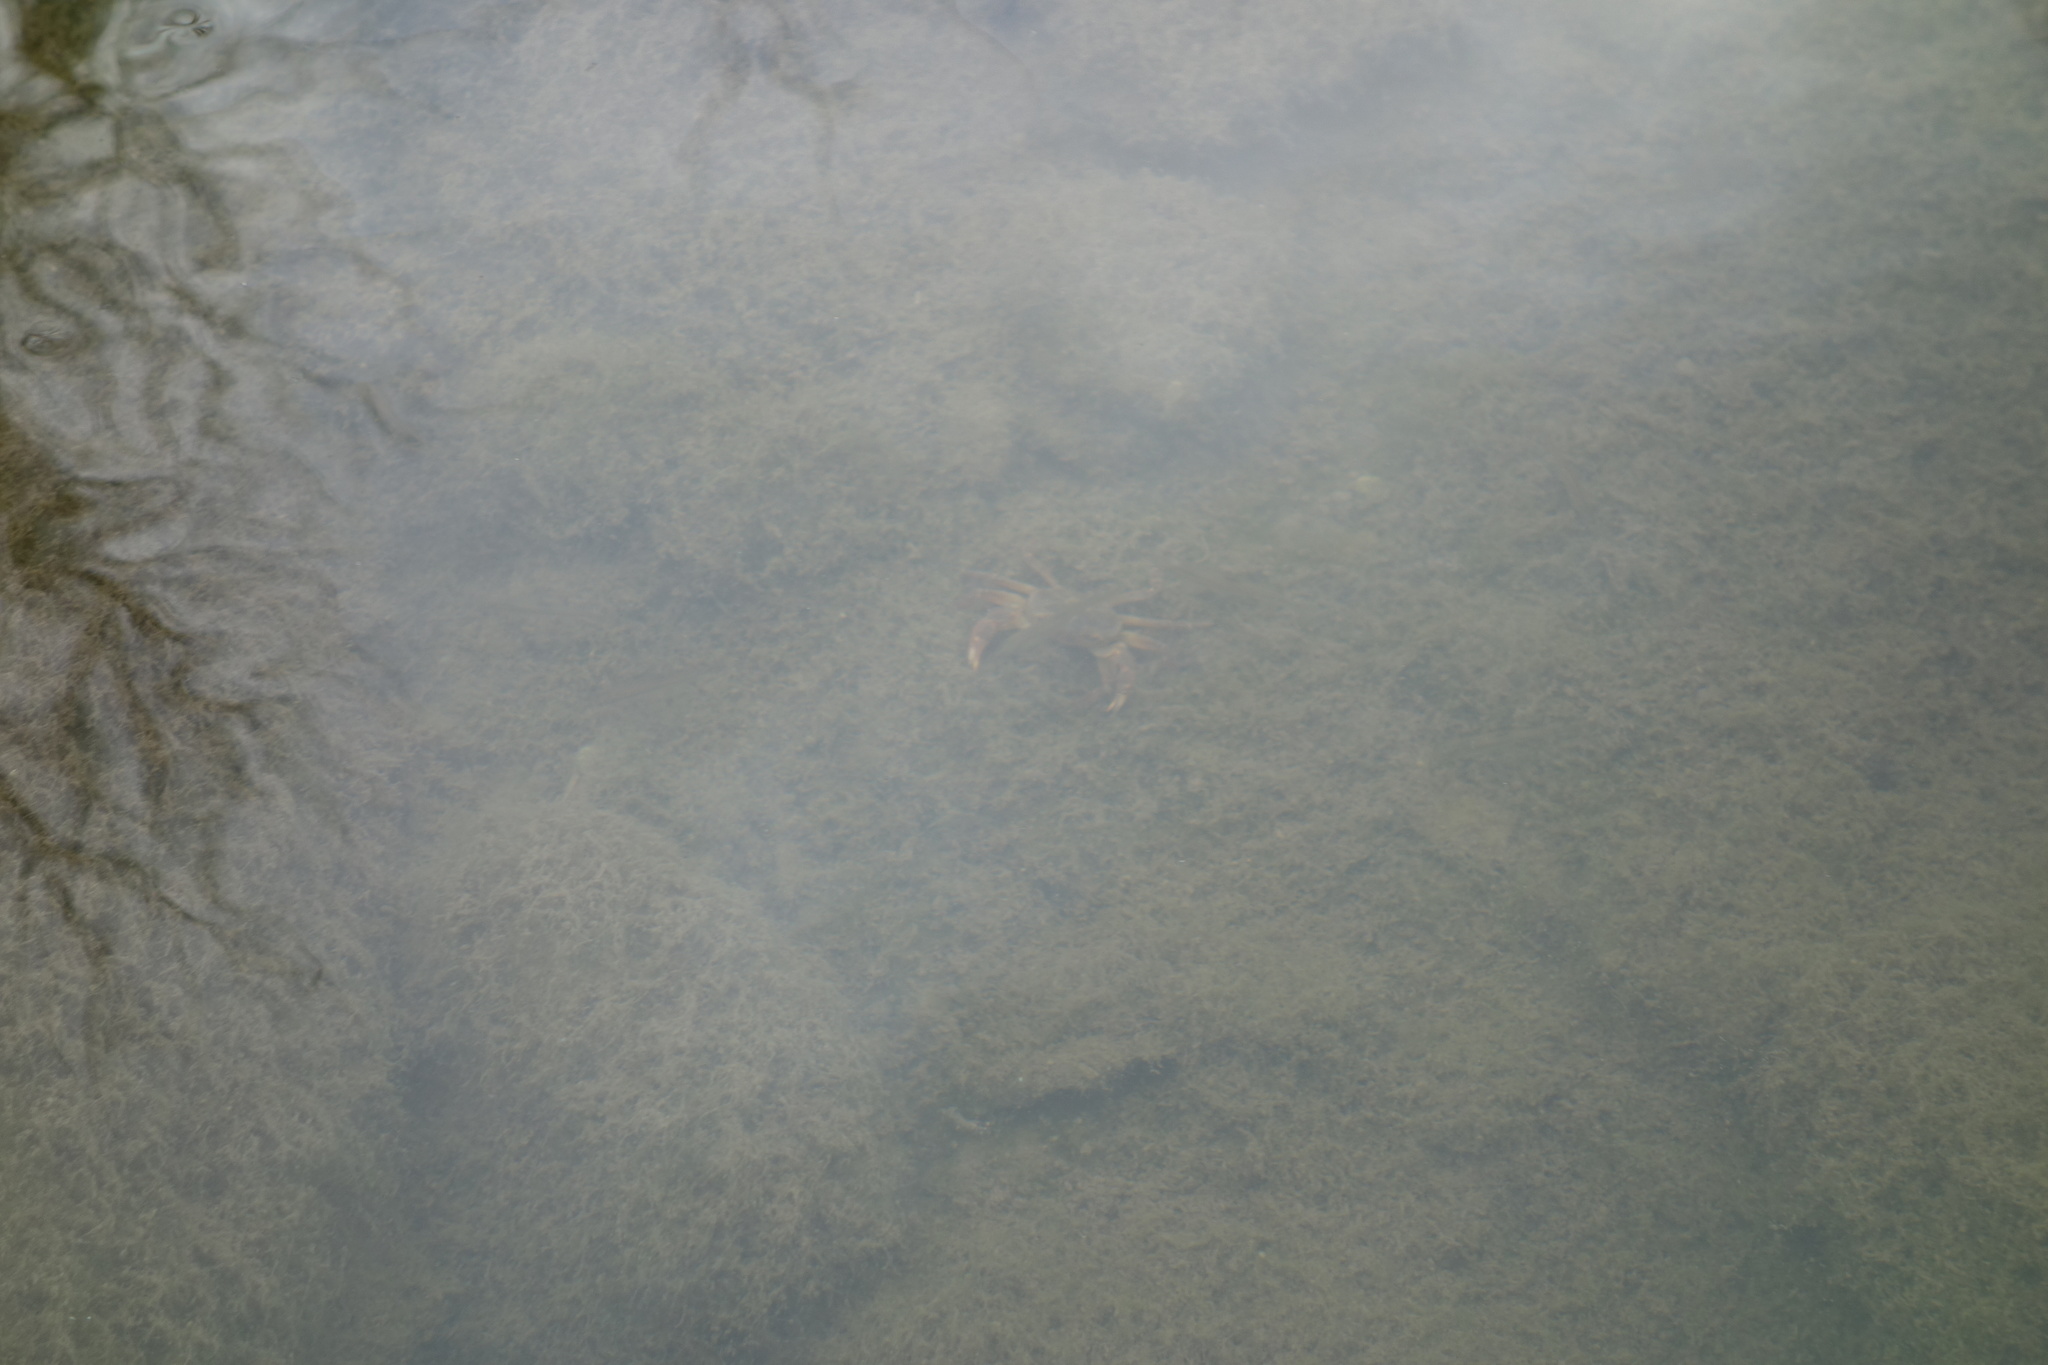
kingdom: Animalia
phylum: Arthropoda
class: Malacostraca
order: Decapoda
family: Potamidae
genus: Potamon
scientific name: Potamon fluviatile
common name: Italian freshwater crab
